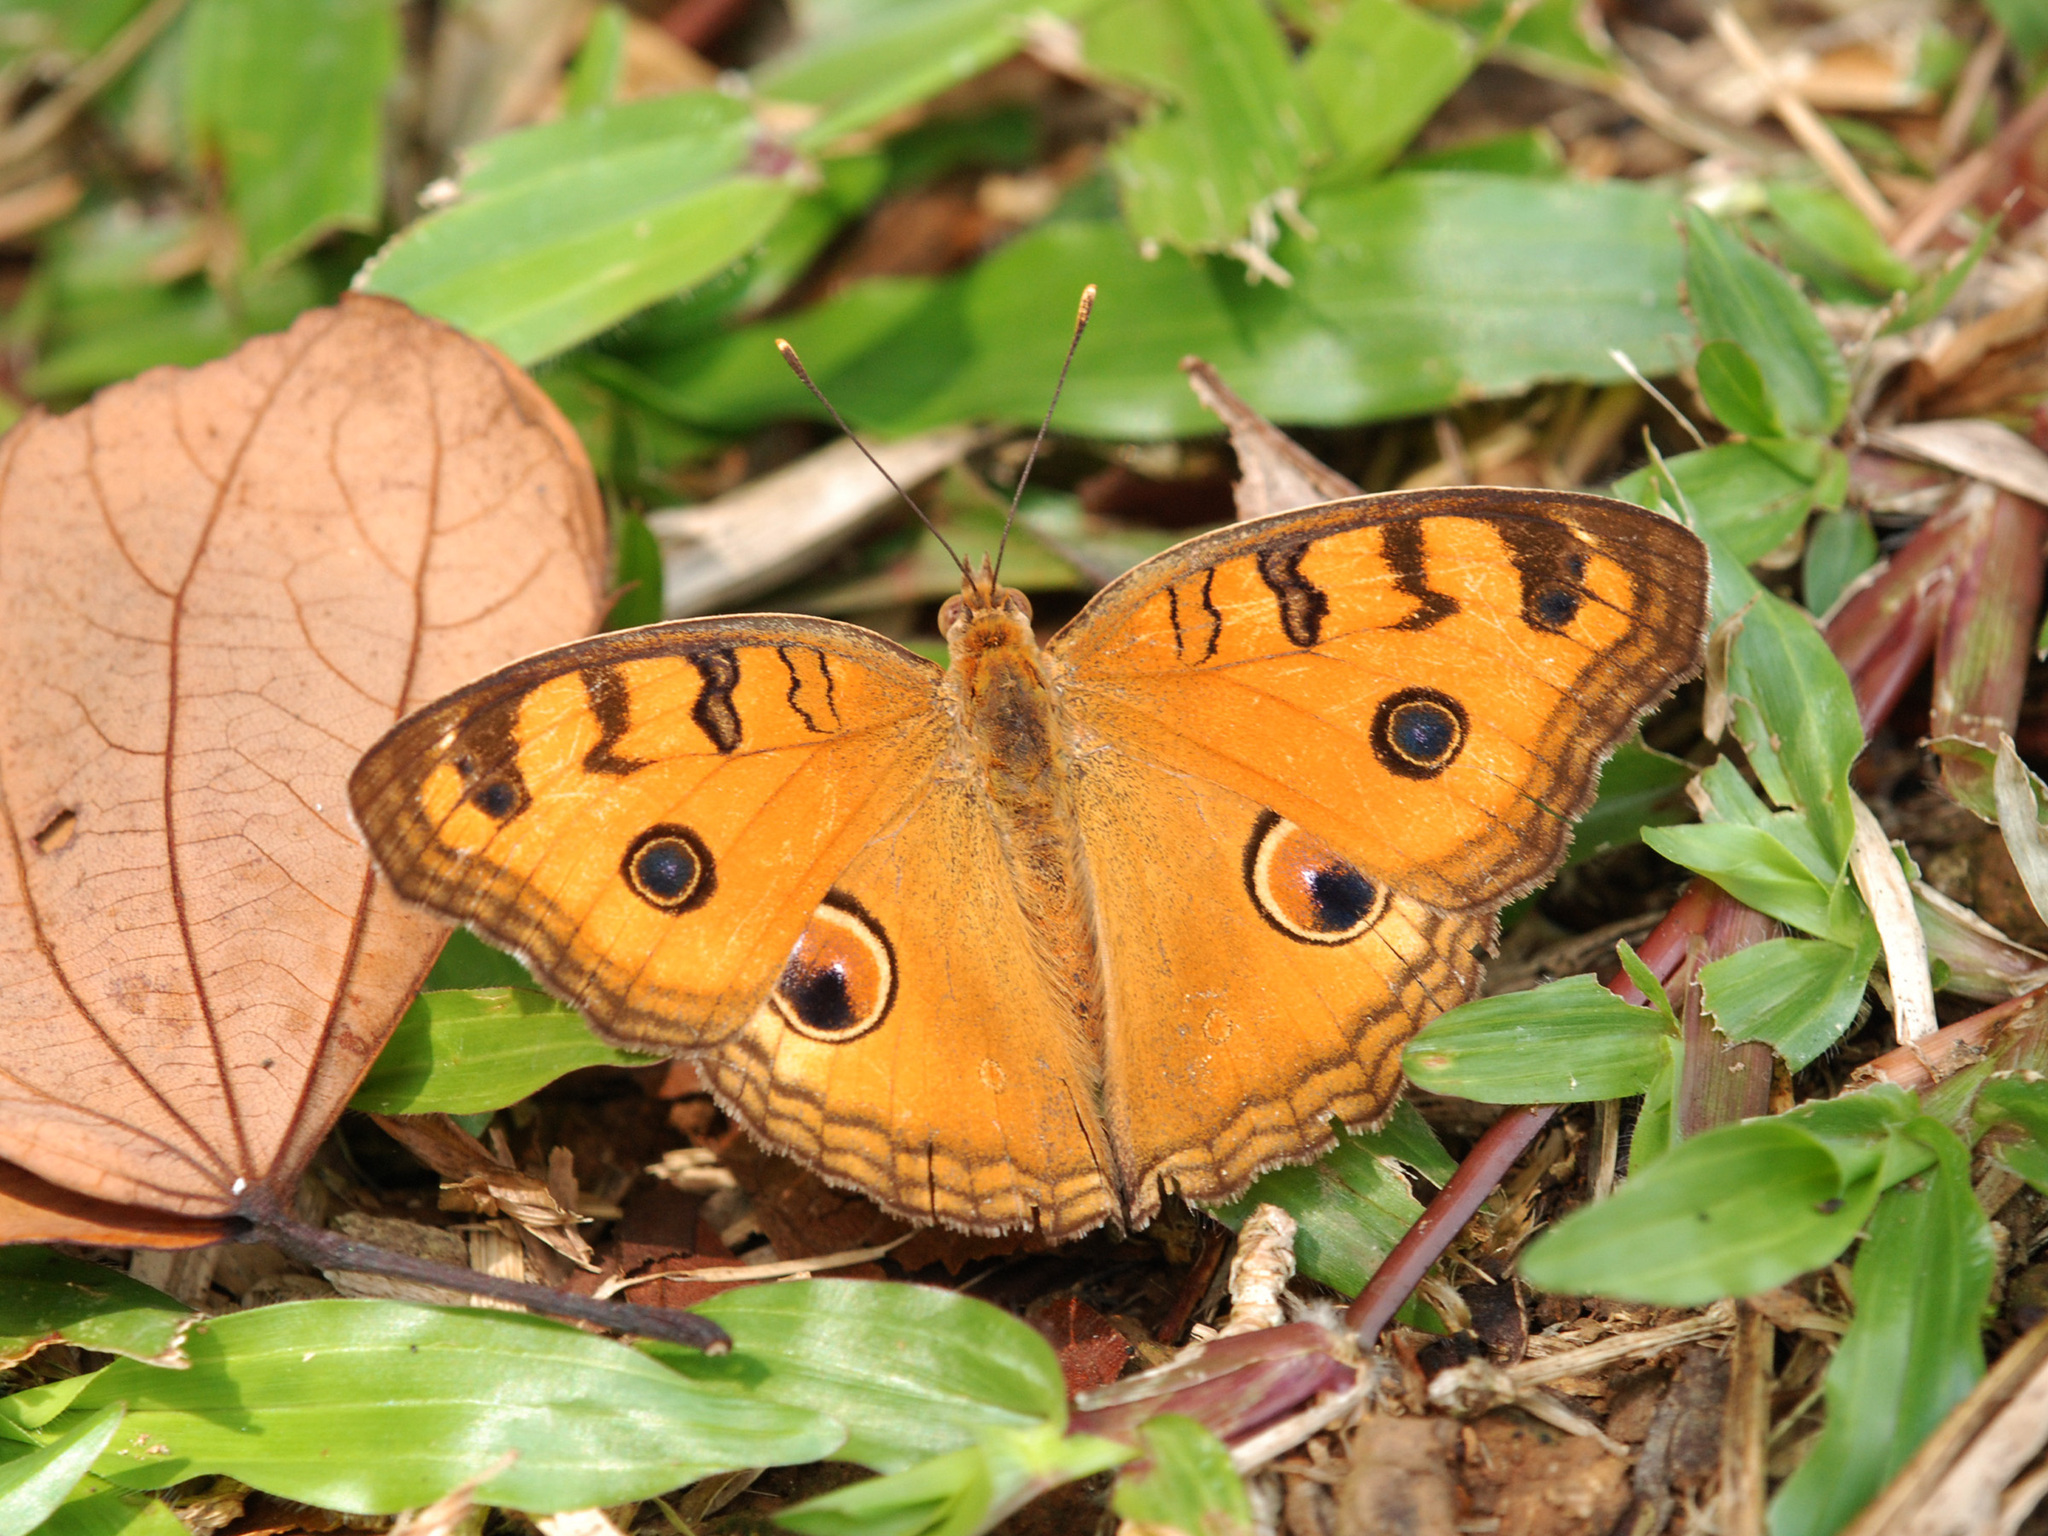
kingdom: Animalia
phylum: Arthropoda
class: Insecta
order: Lepidoptera
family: Nymphalidae
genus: Junonia
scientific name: Junonia almana
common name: Peacock pansy
